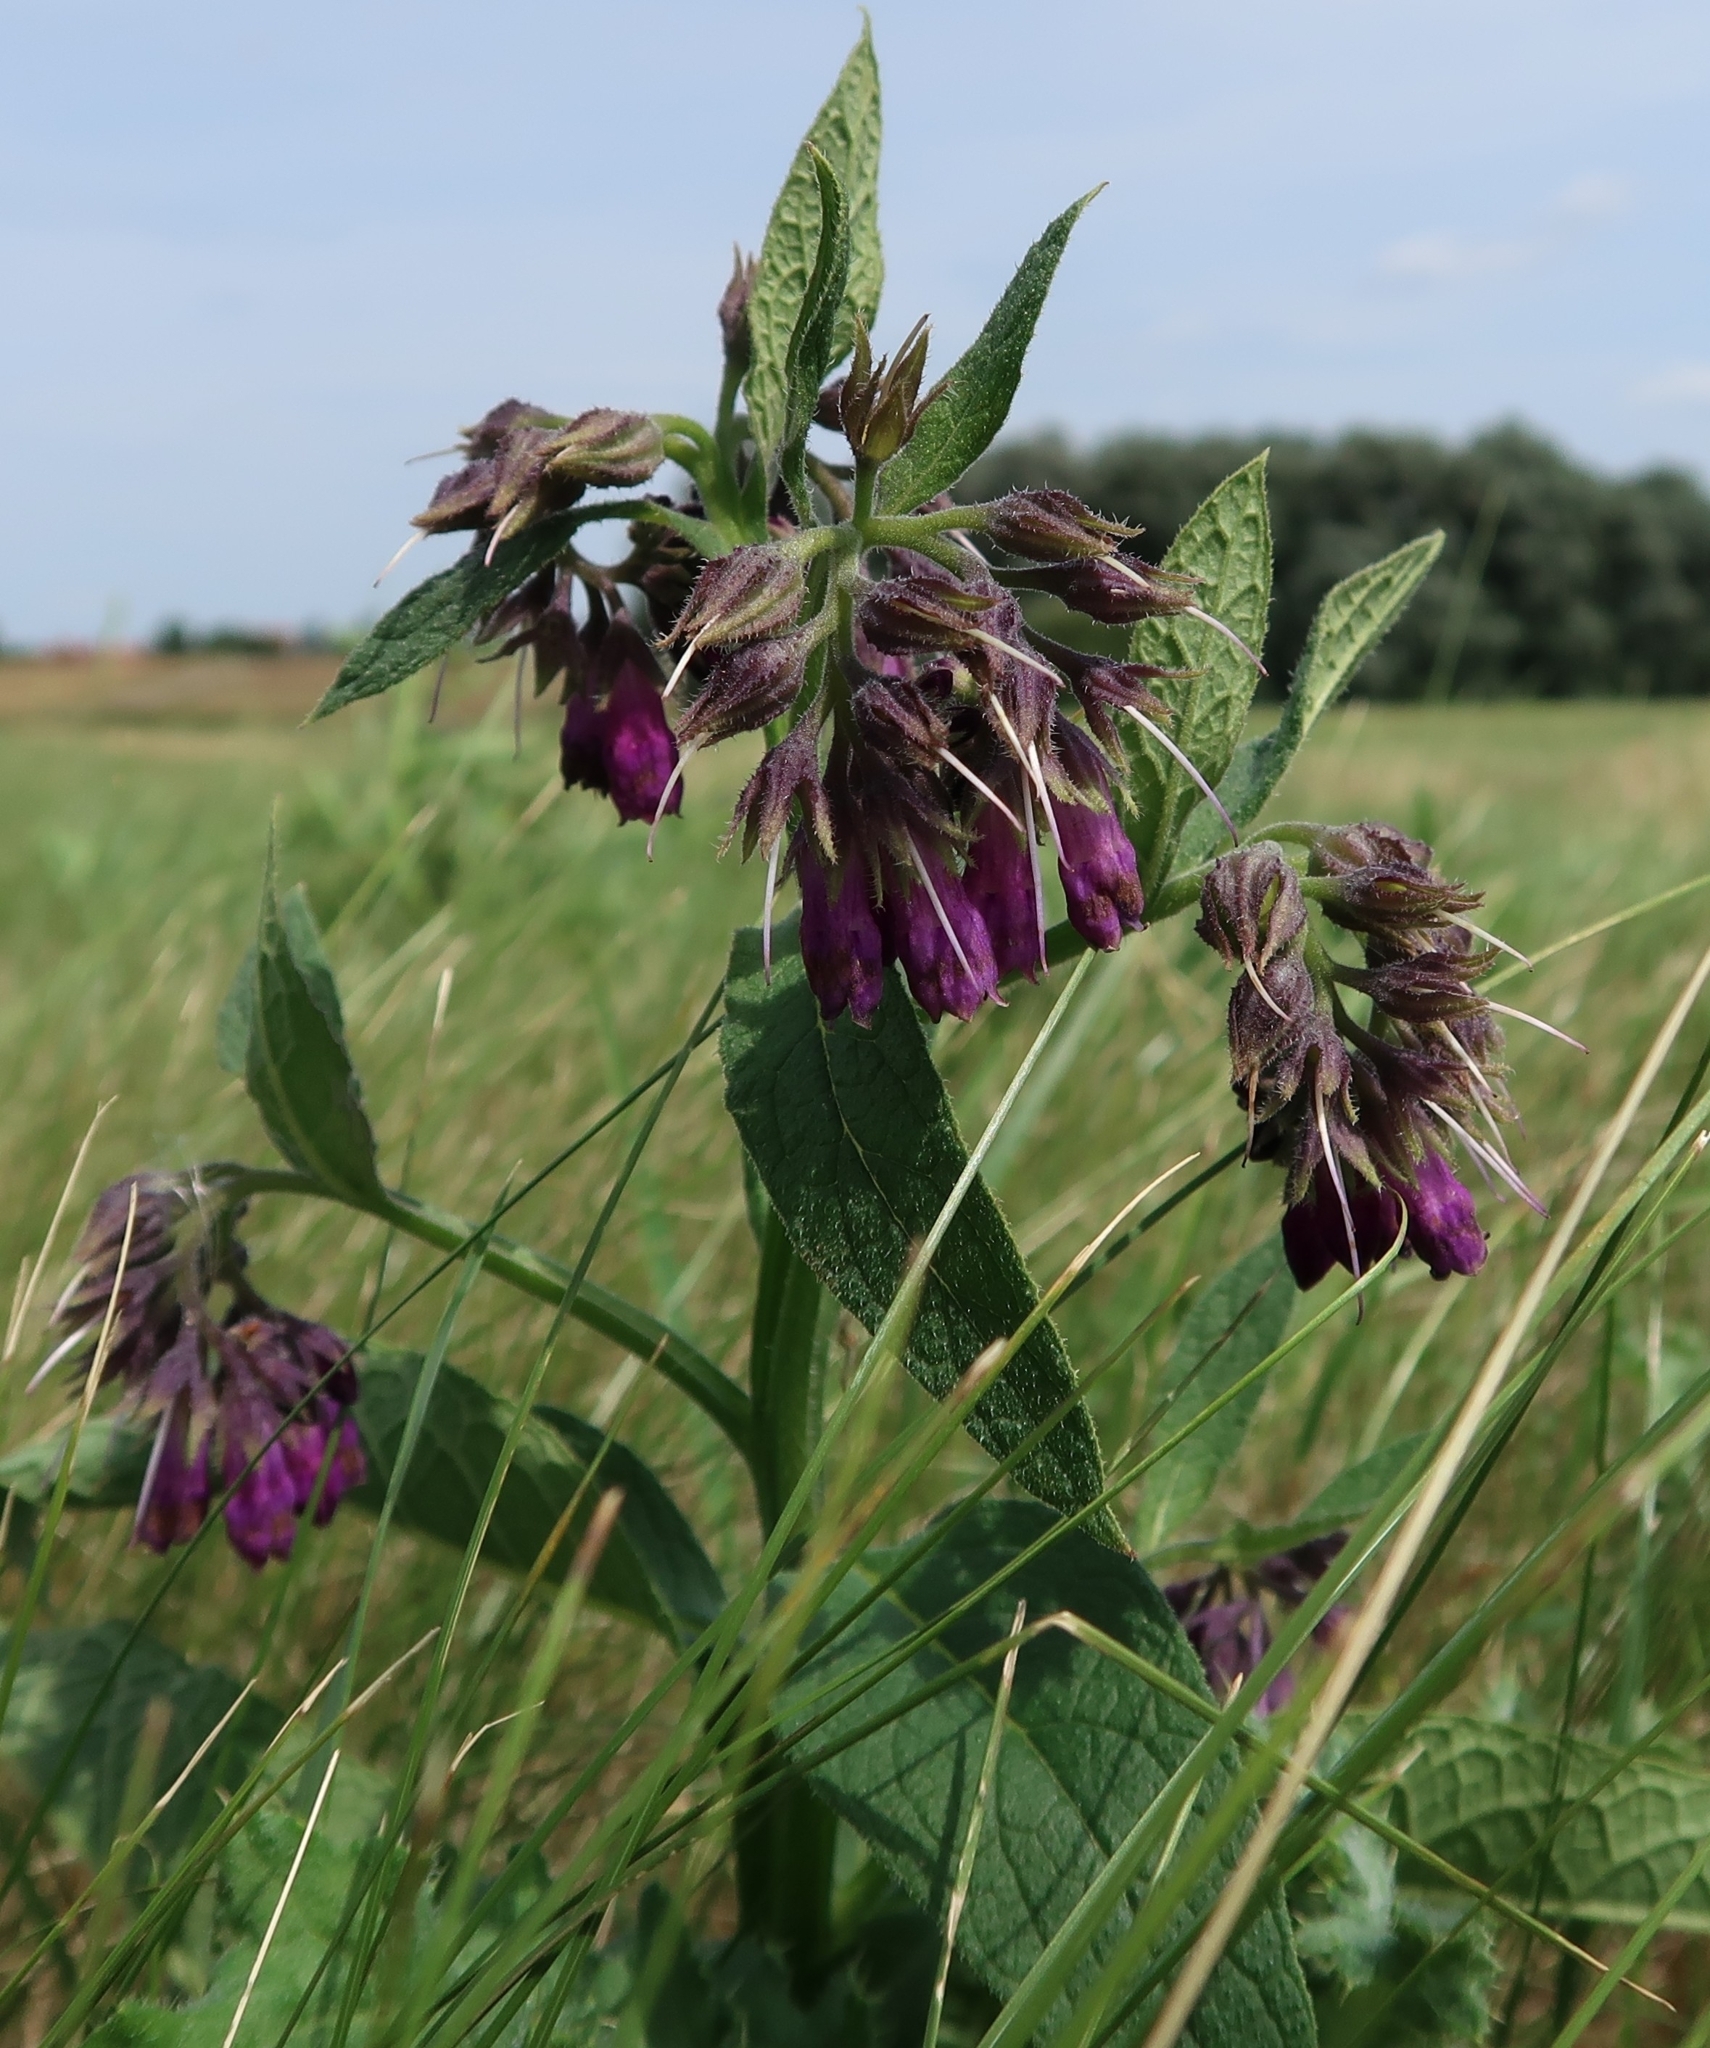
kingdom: Plantae
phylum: Tracheophyta
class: Magnoliopsida
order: Boraginales
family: Boraginaceae
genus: Symphytum
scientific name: Symphytum officinale
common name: Common comfrey
